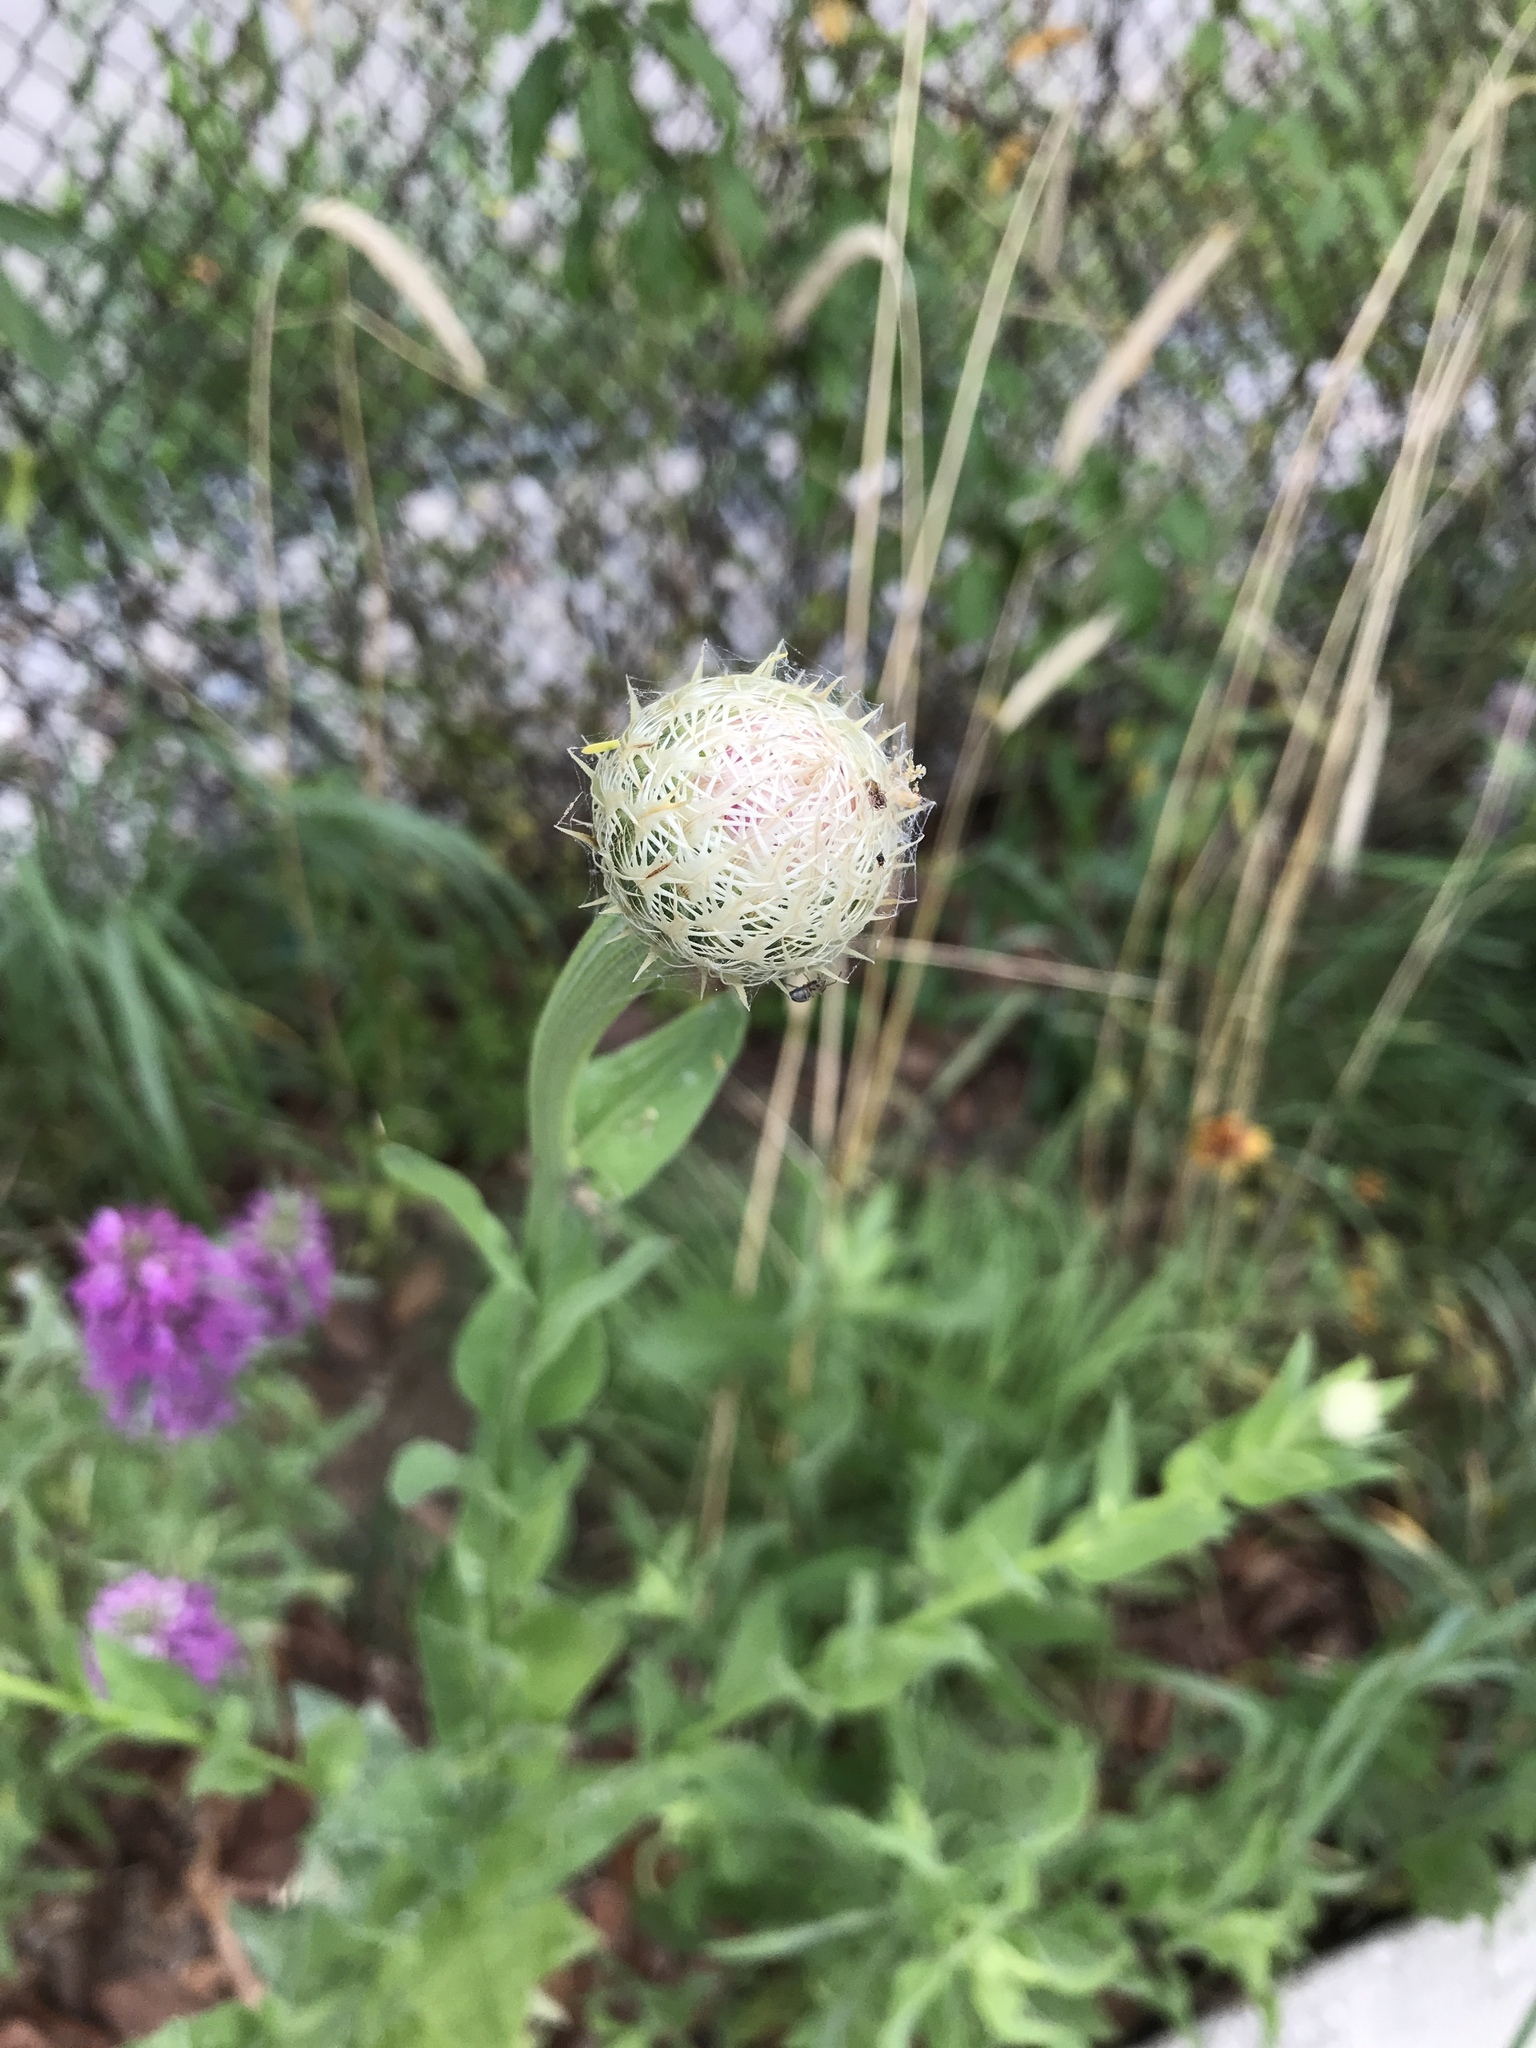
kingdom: Plantae
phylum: Tracheophyta
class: Magnoliopsida
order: Asterales
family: Asteraceae
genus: Plectocephalus
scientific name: Plectocephalus americanus
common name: American basket-flower
